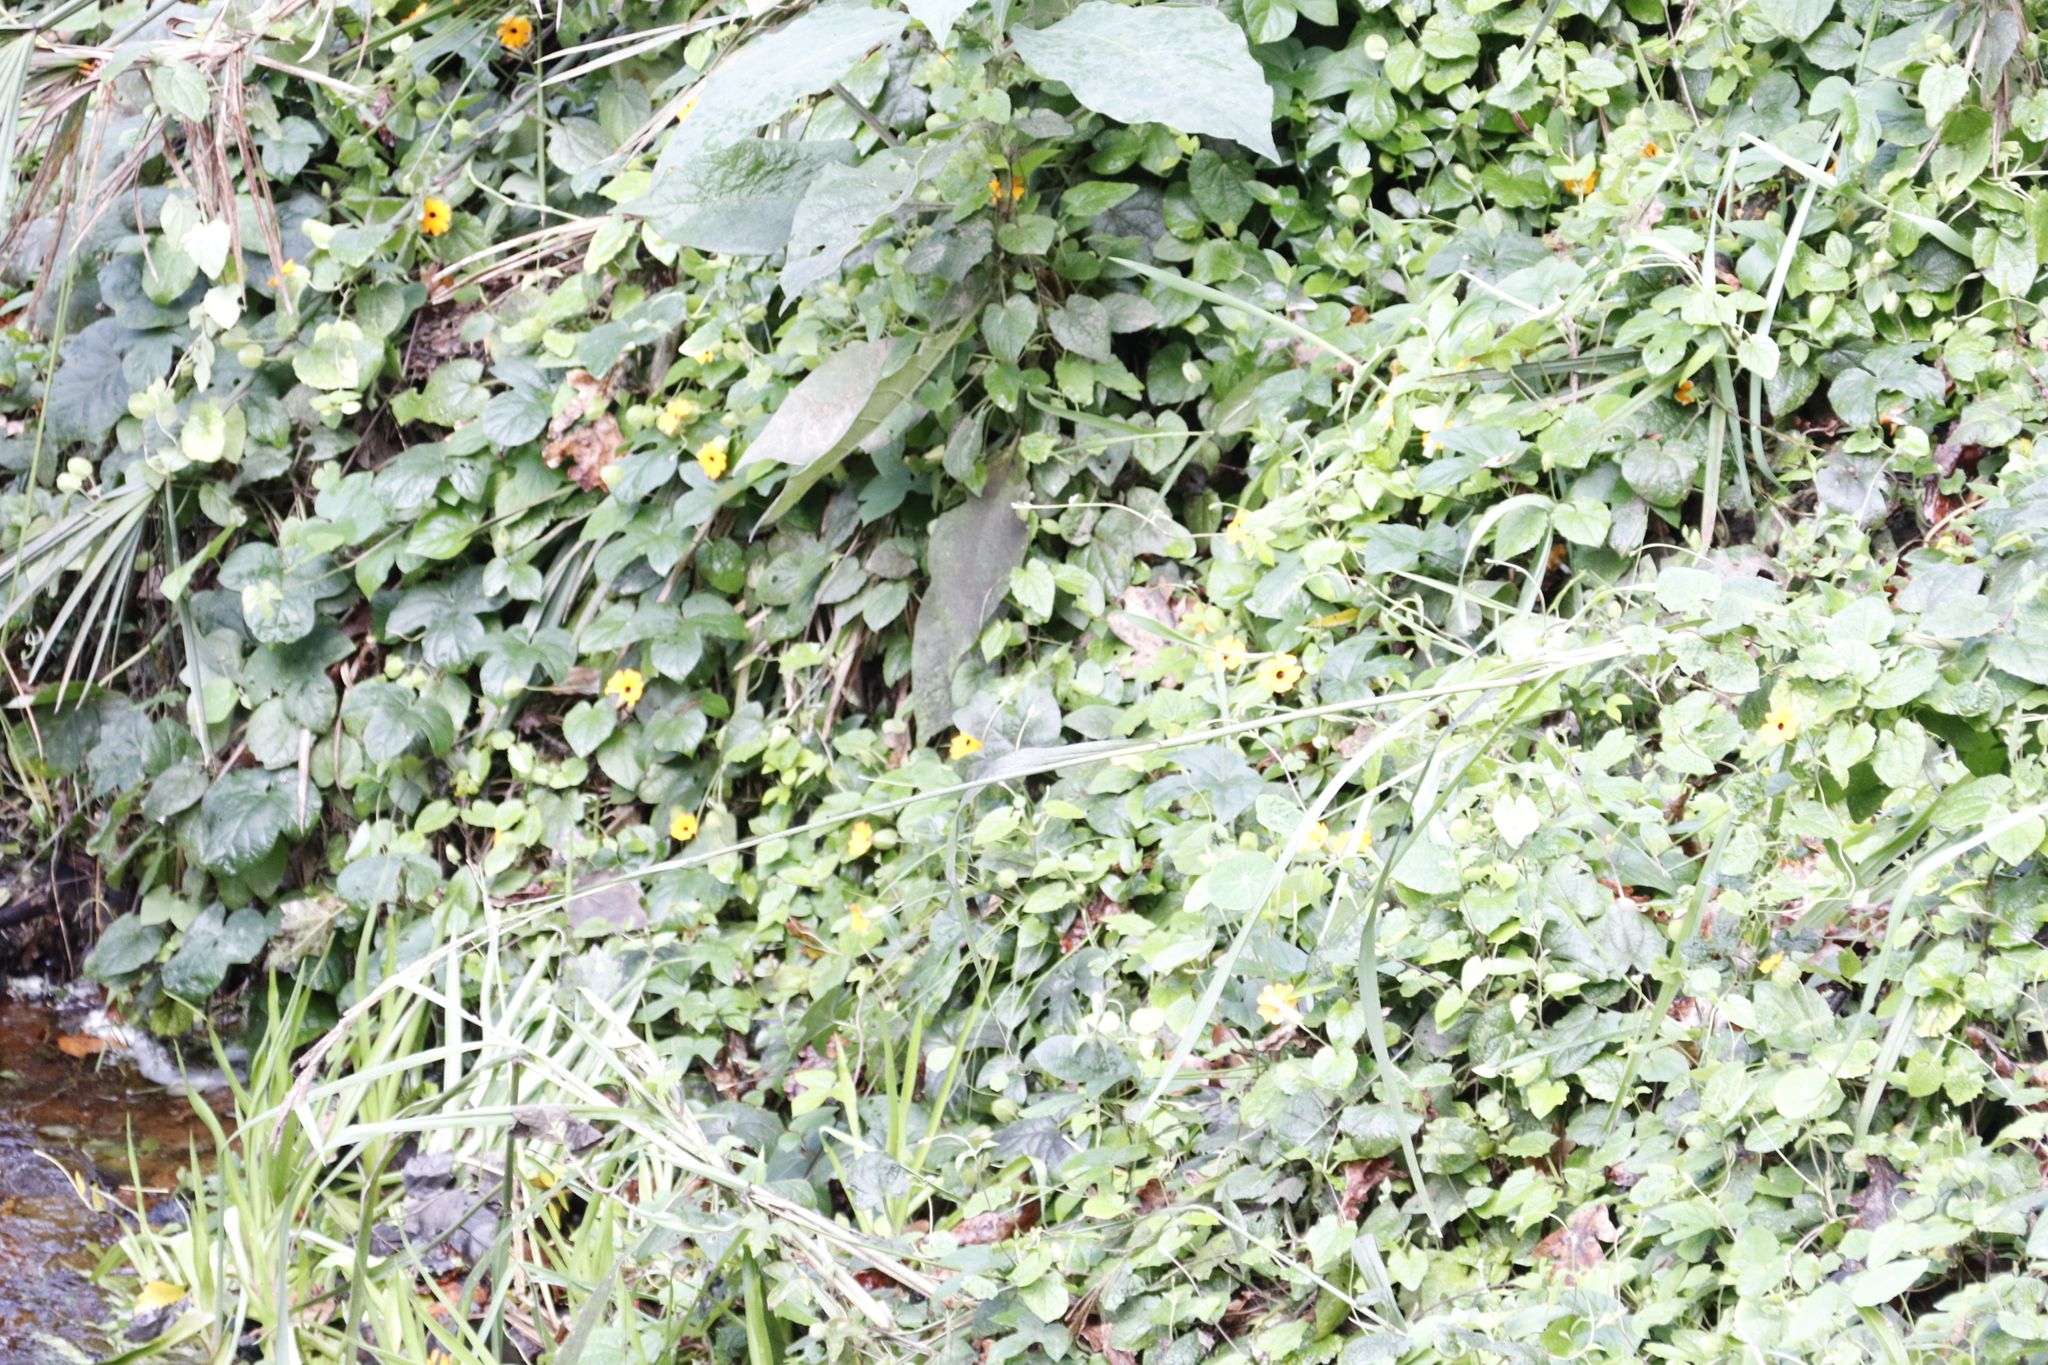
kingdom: Plantae
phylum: Tracheophyta
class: Magnoliopsida
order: Lamiales
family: Acanthaceae
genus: Thunbergia
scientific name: Thunbergia alata
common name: Blackeyed susan vine
